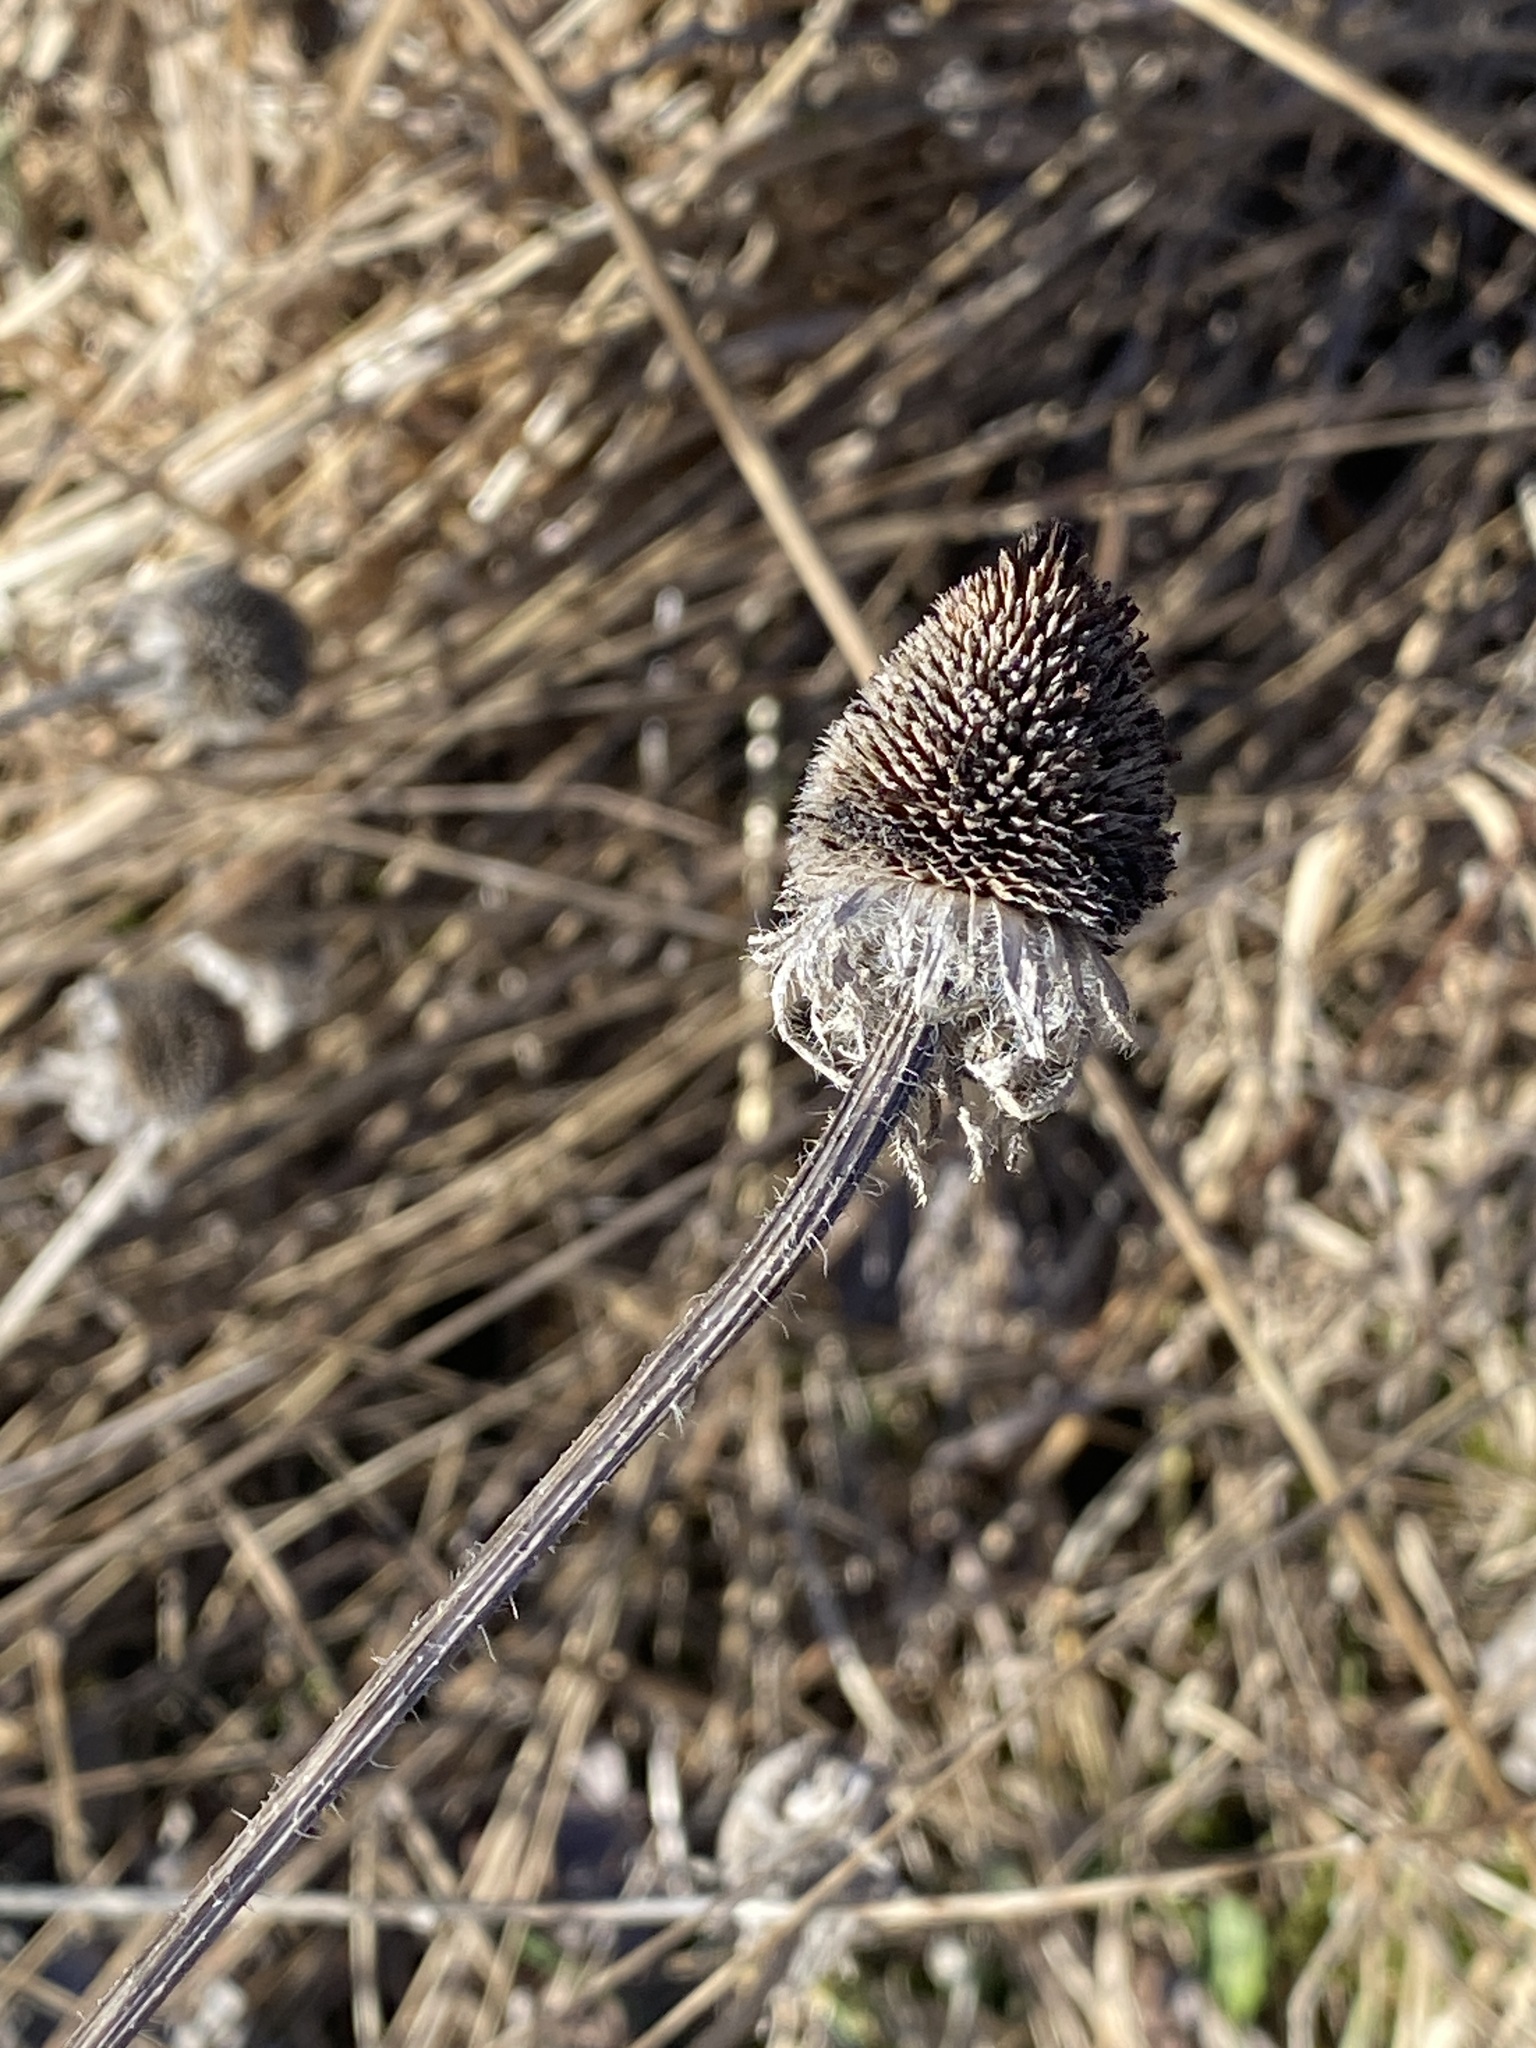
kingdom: Plantae
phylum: Tracheophyta
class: Magnoliopsida
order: Asterales
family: Asteraceae
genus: Rudbeckia
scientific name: Rudbeckia hirta
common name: Black-eyed-susan
